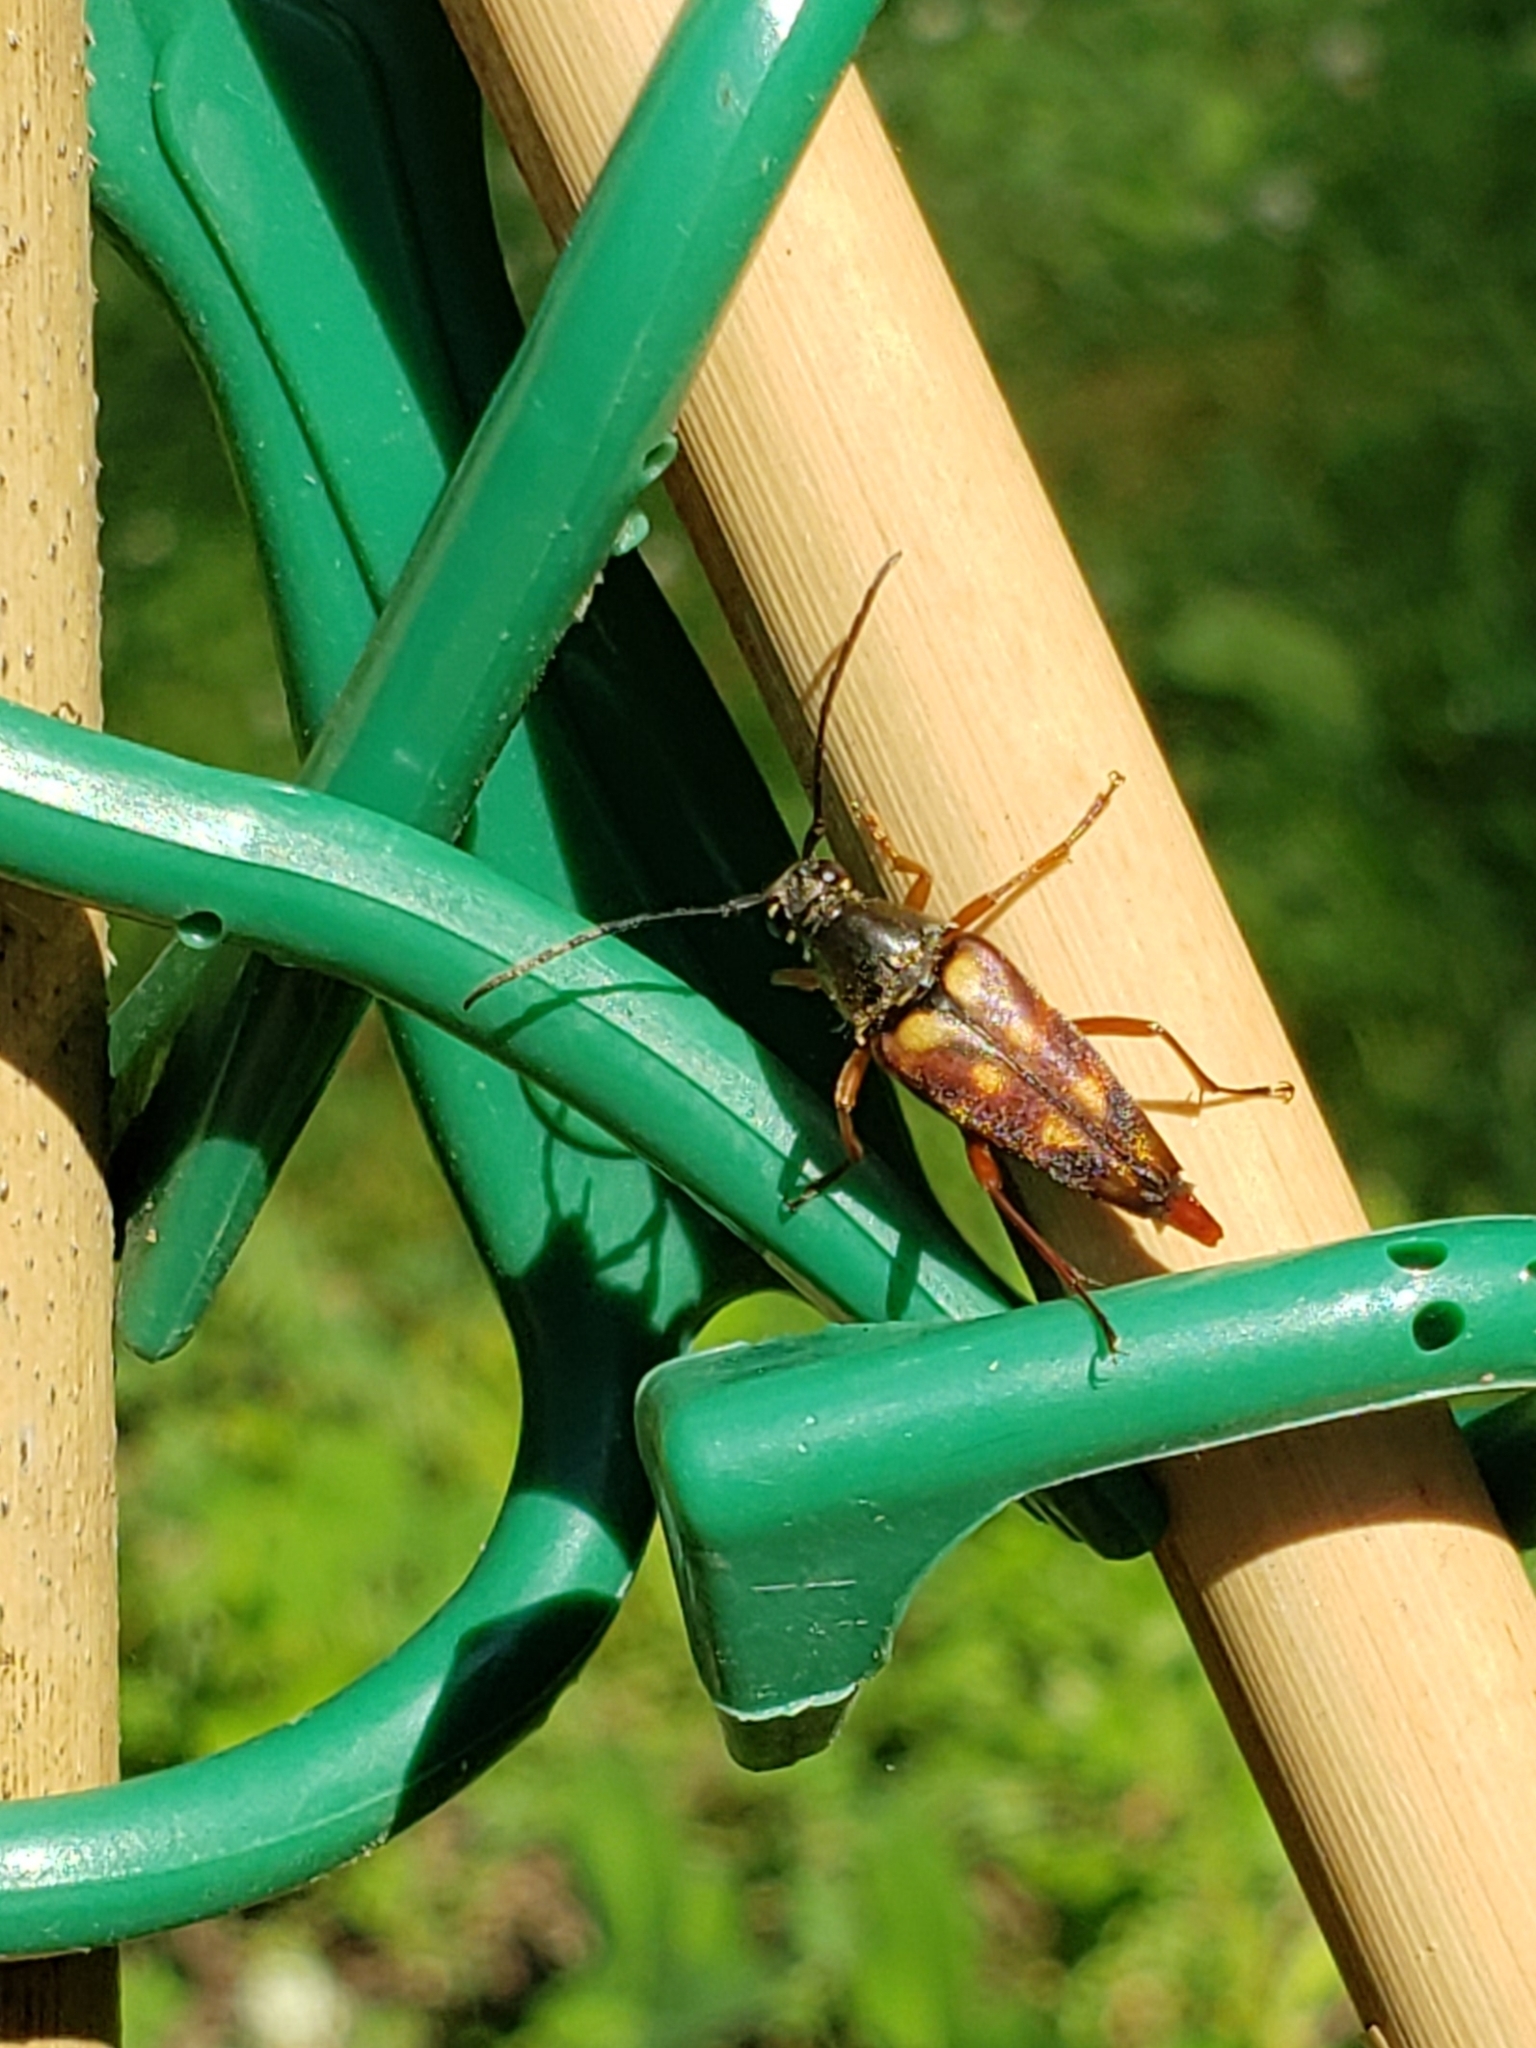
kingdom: Animalia
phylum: Arthropoda
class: Insecta
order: Coleoptera
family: Cerambycidae
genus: Typocerus
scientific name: Typocerus velutinus
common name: Banded longhorn beetle
